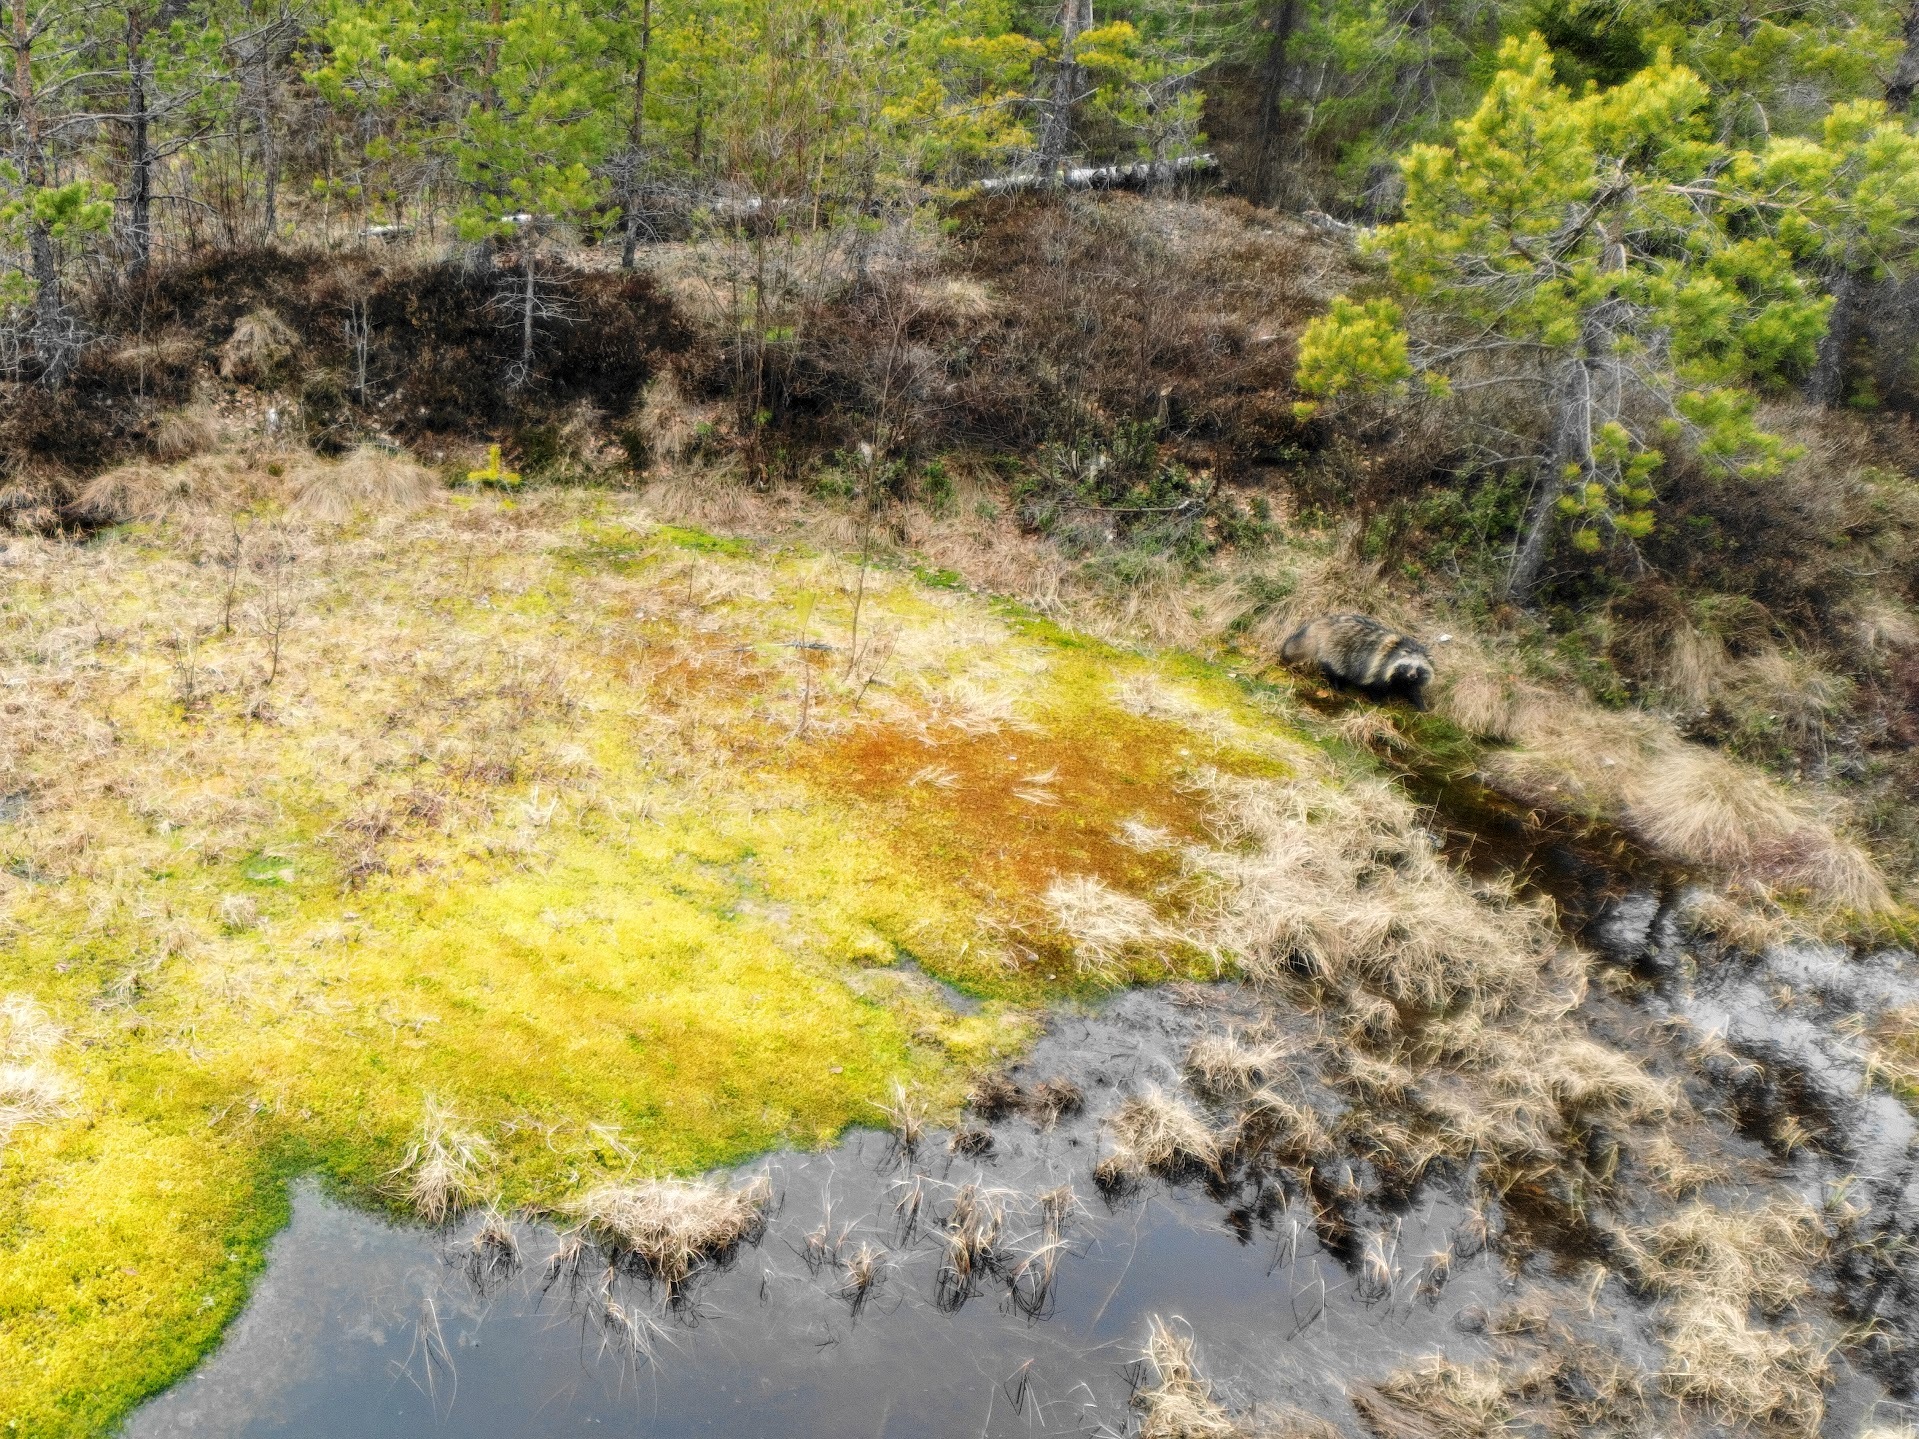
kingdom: Animalia
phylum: Chordata
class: Mammalia
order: Carnivora
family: Canidae
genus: Nyctereutes
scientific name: Nyctereutes procyonoides
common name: Raccoon dog
